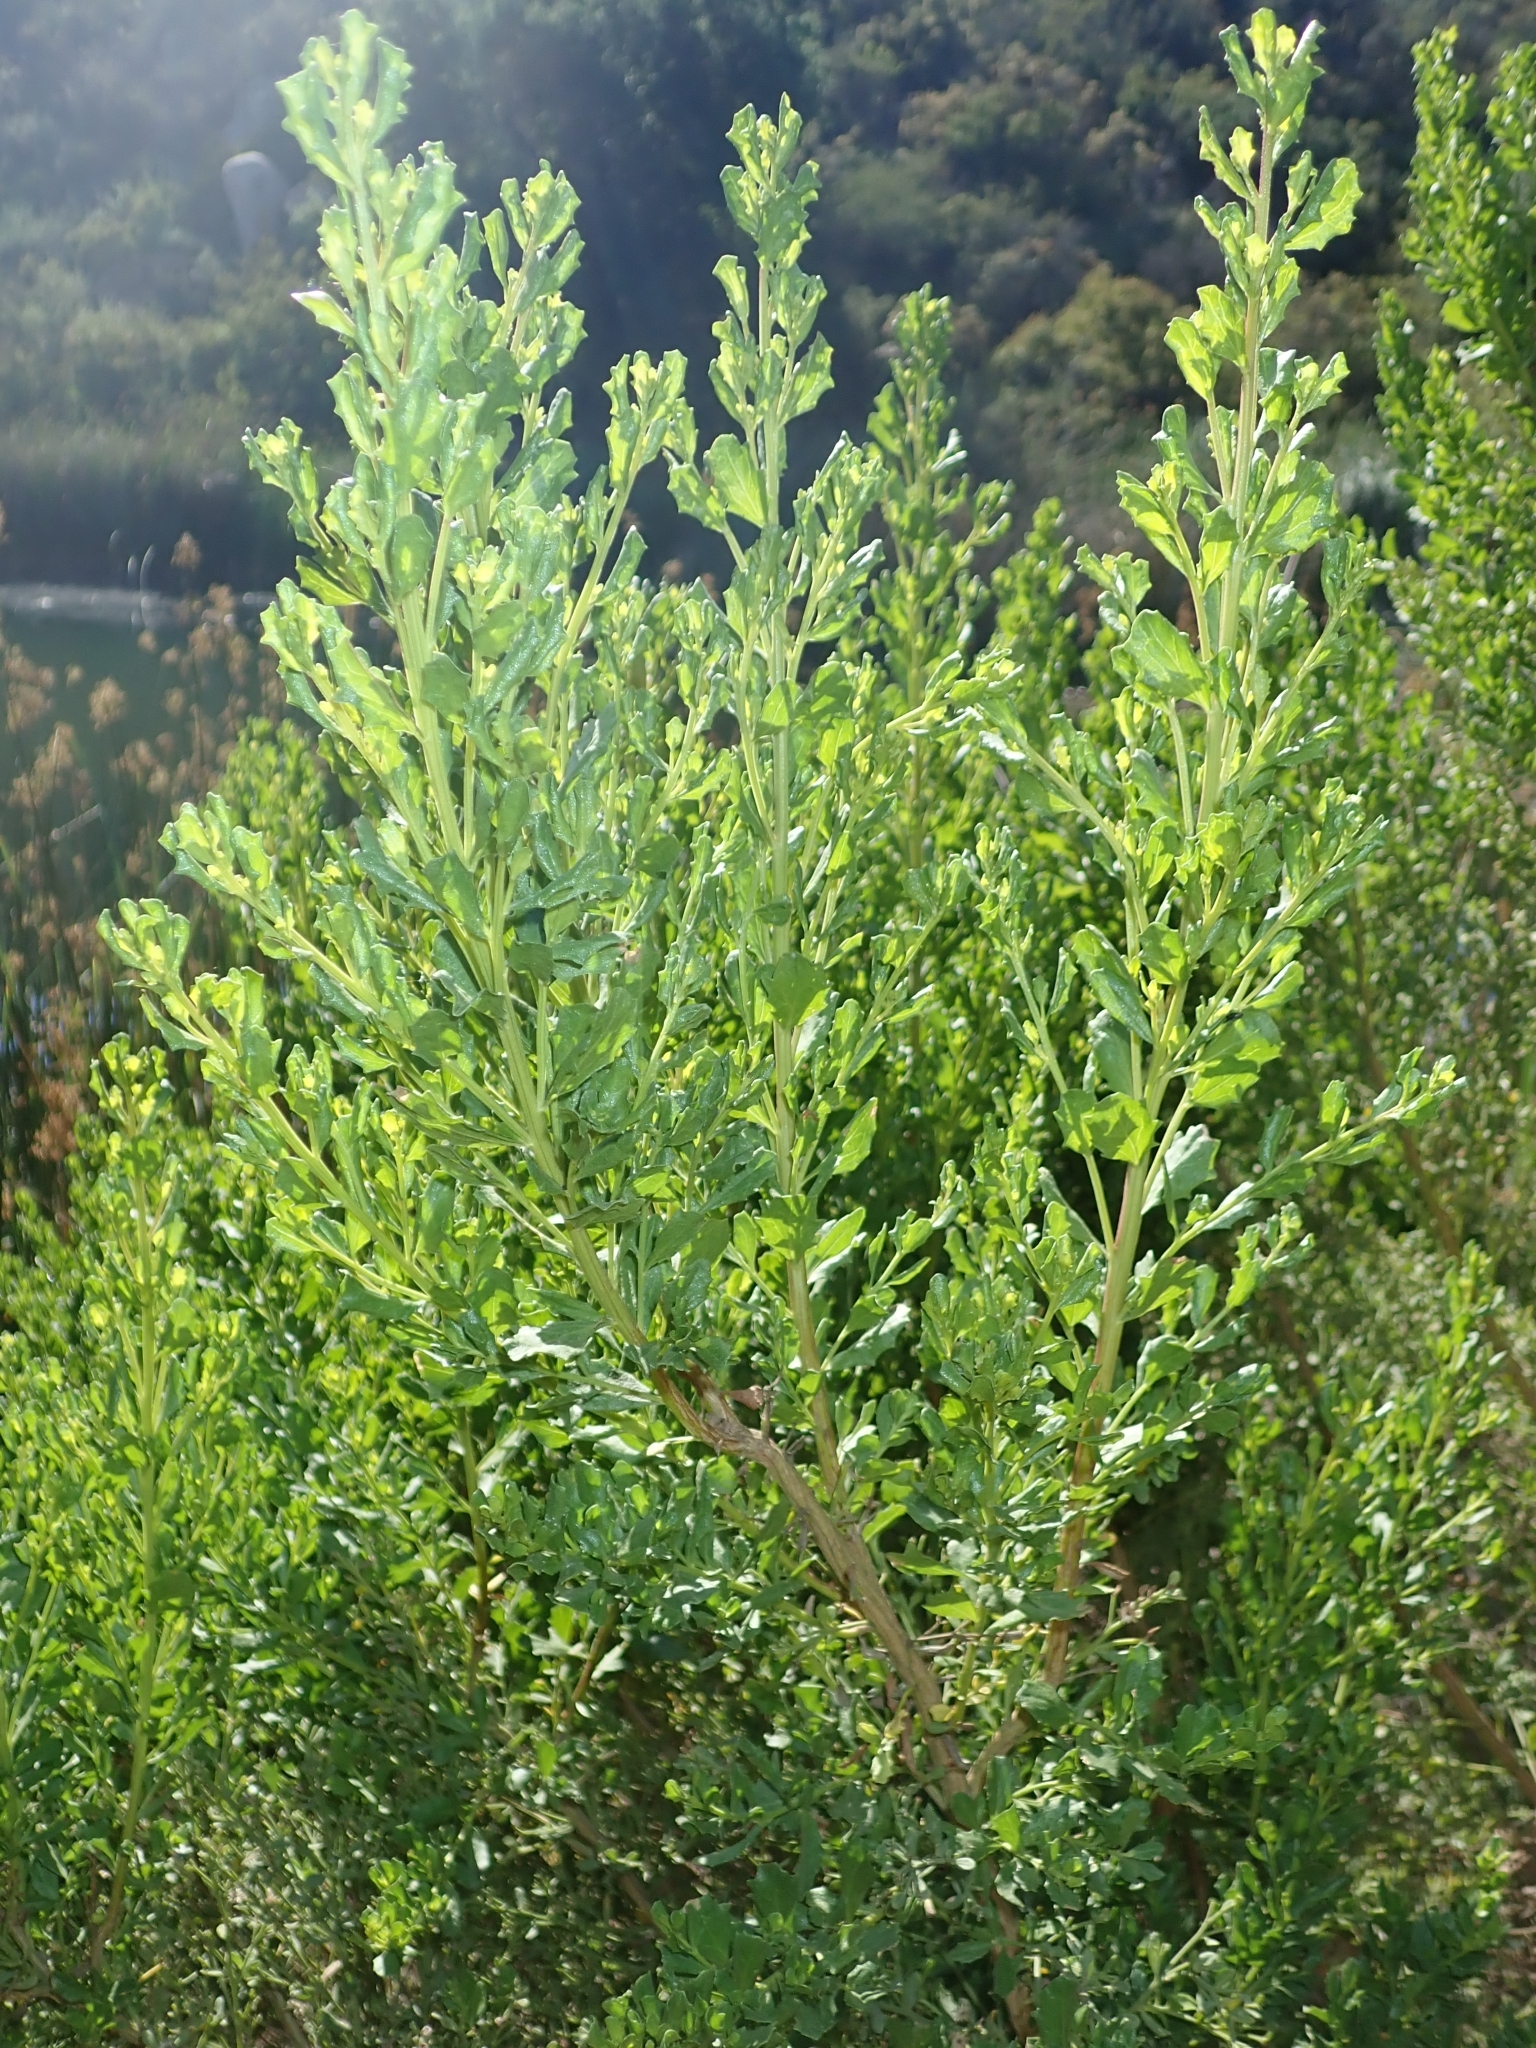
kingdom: Plantae
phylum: Tracheophyta
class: Magnoliopsida
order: Asterales
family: Asteraceae
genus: Baccharis
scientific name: Baccharis pilularis
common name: Coyotebrush
